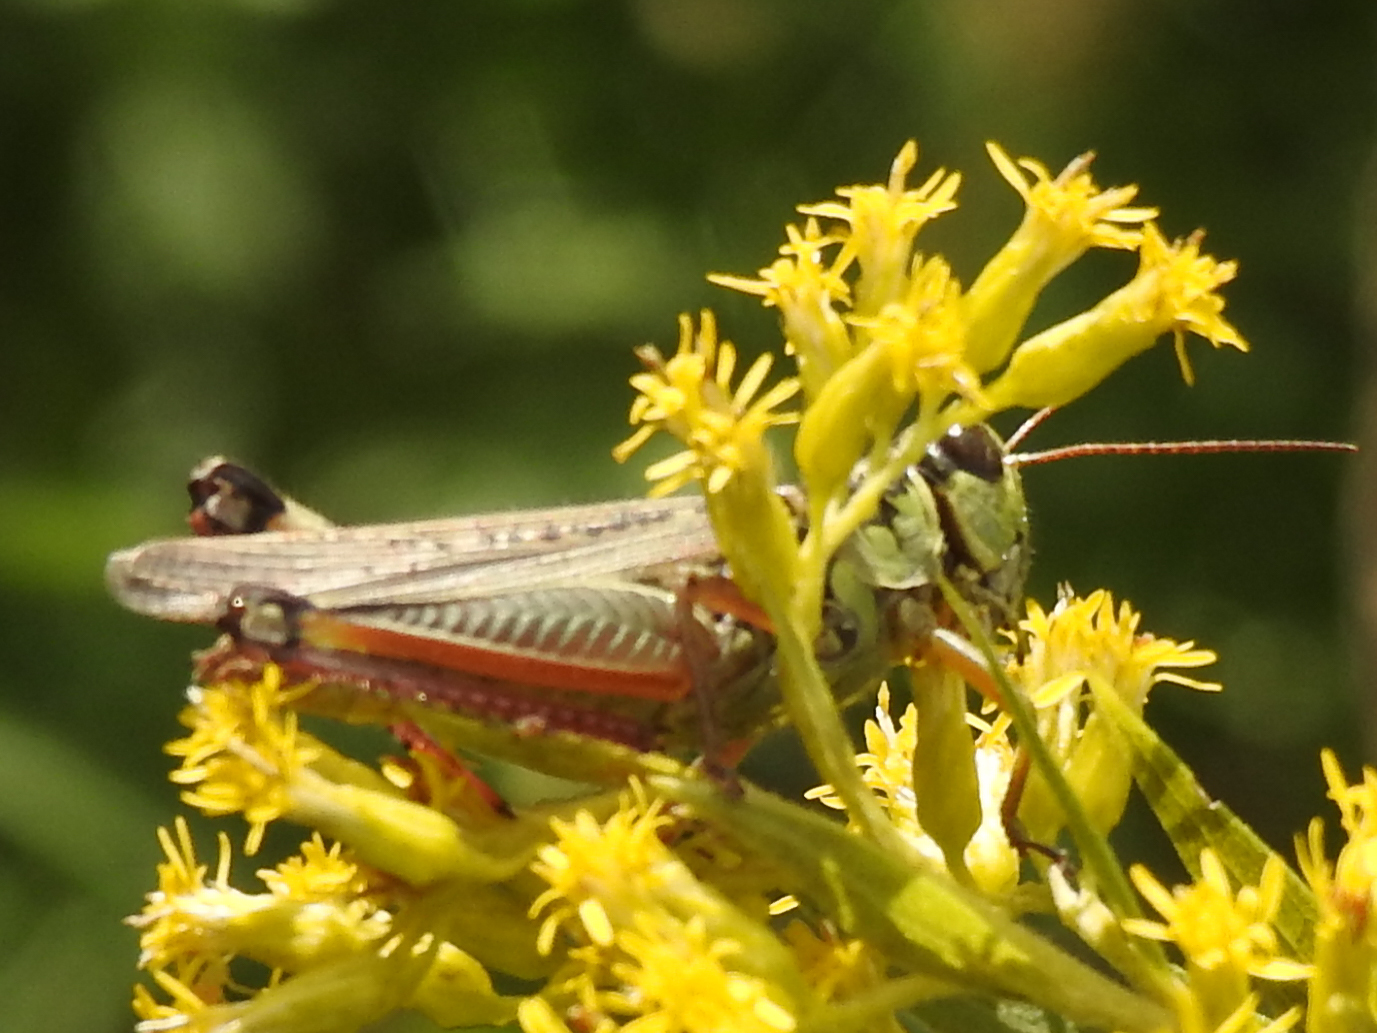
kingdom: Animalia
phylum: Arthropoda
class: Insecta
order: Orthoptera
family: Acrididae
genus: Melanoplus
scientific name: Melanoplus femurrubrum
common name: Red-legged grasshopper
